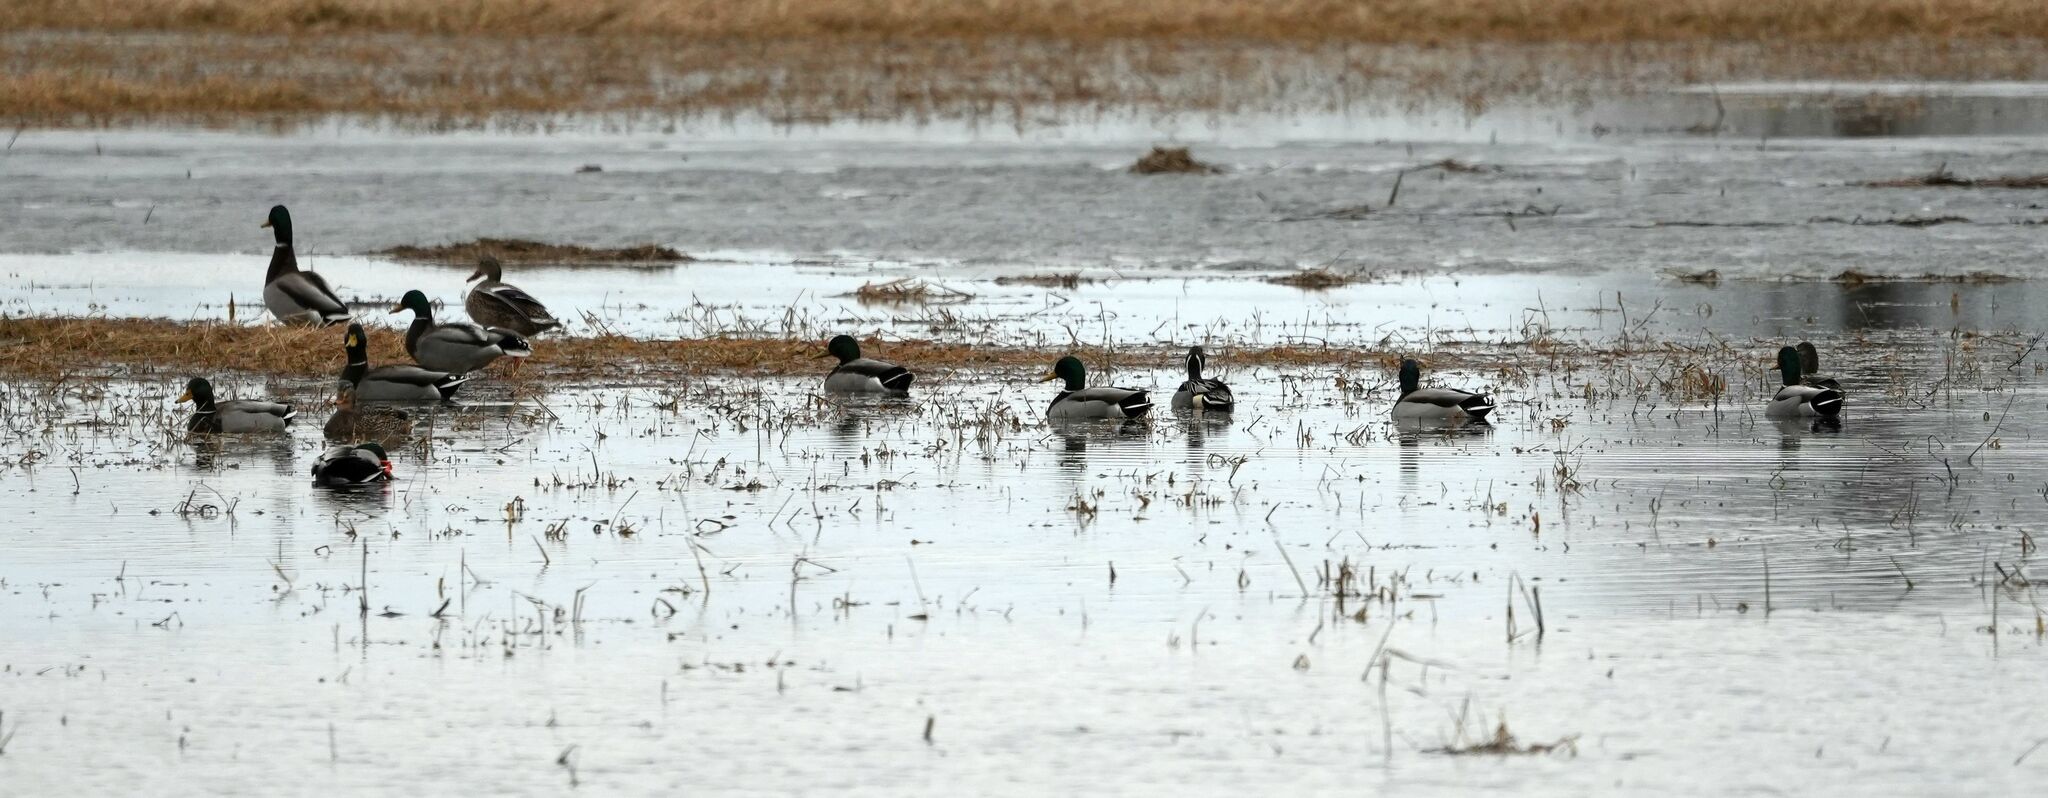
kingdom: Animalia
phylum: Chordata
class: Aves
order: Anseriformes
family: Anatidae
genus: Anas
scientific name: Anas platyrhynchos
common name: Mallard
